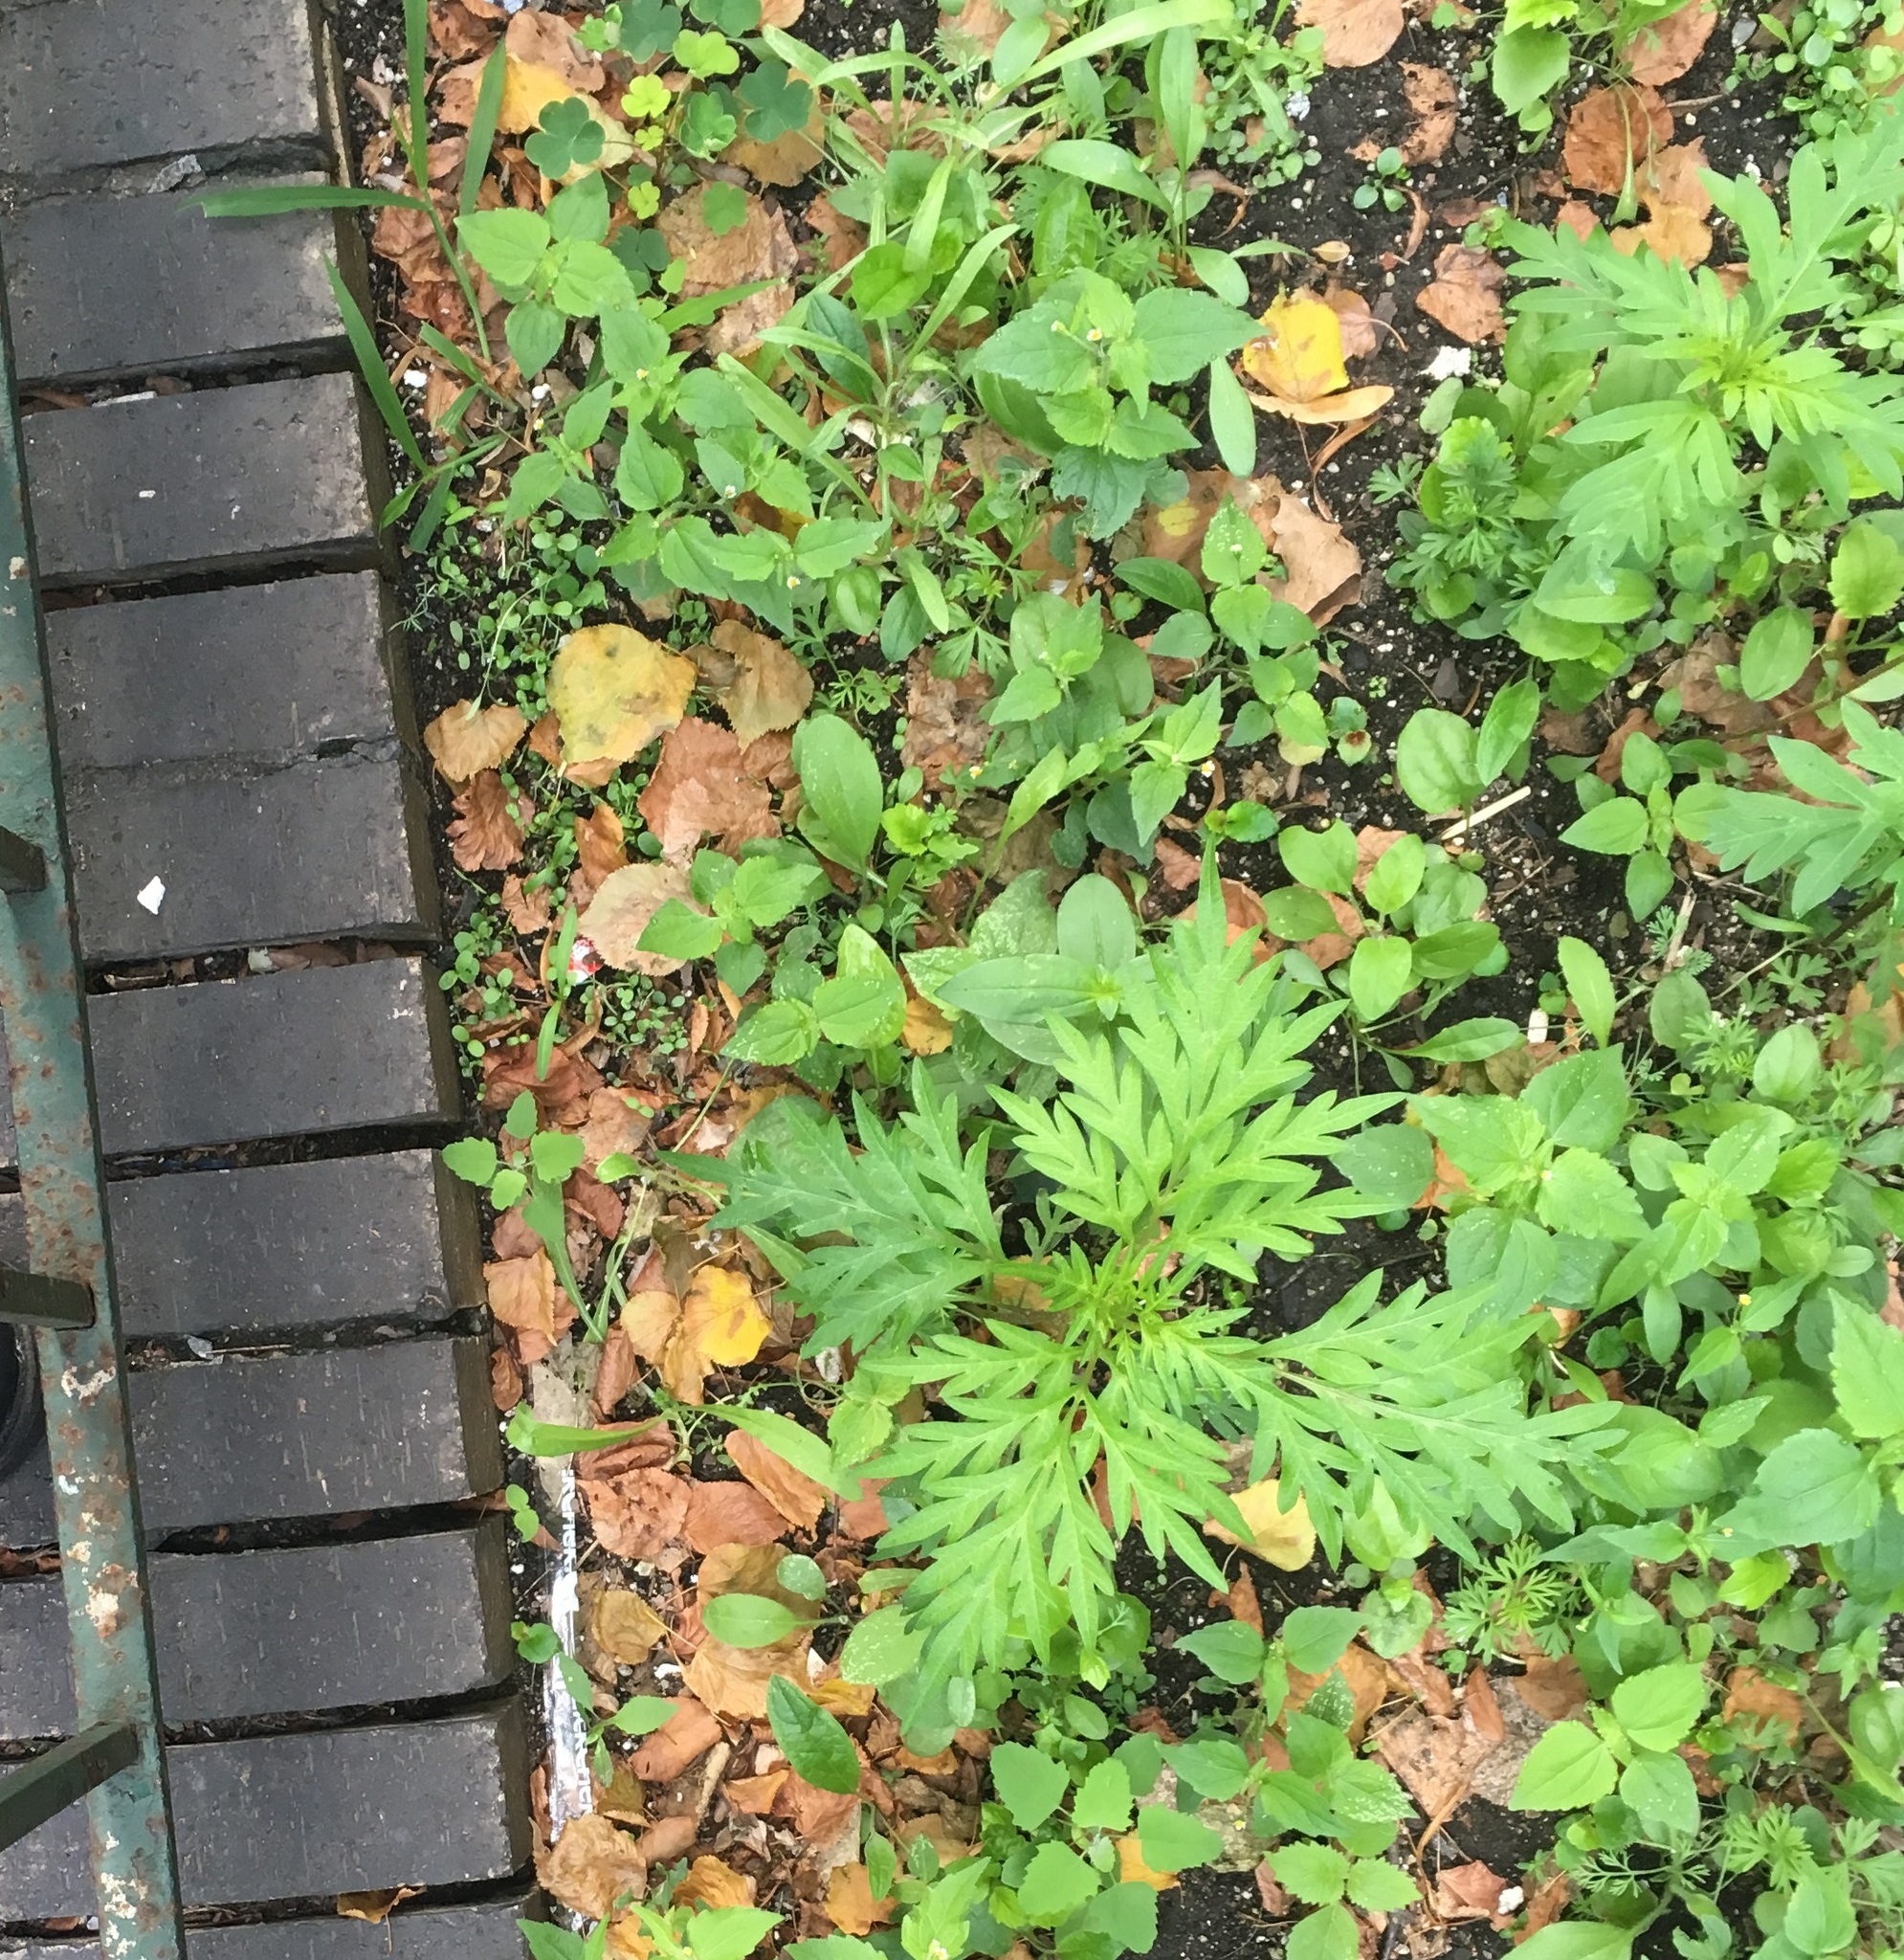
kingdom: Plantae
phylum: Tracheophyta
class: Magnoliopsida
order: Asterales
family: Asteraceae
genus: Ambrosia
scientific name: Ambrosia artemisiifolia
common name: Annual ragweed
